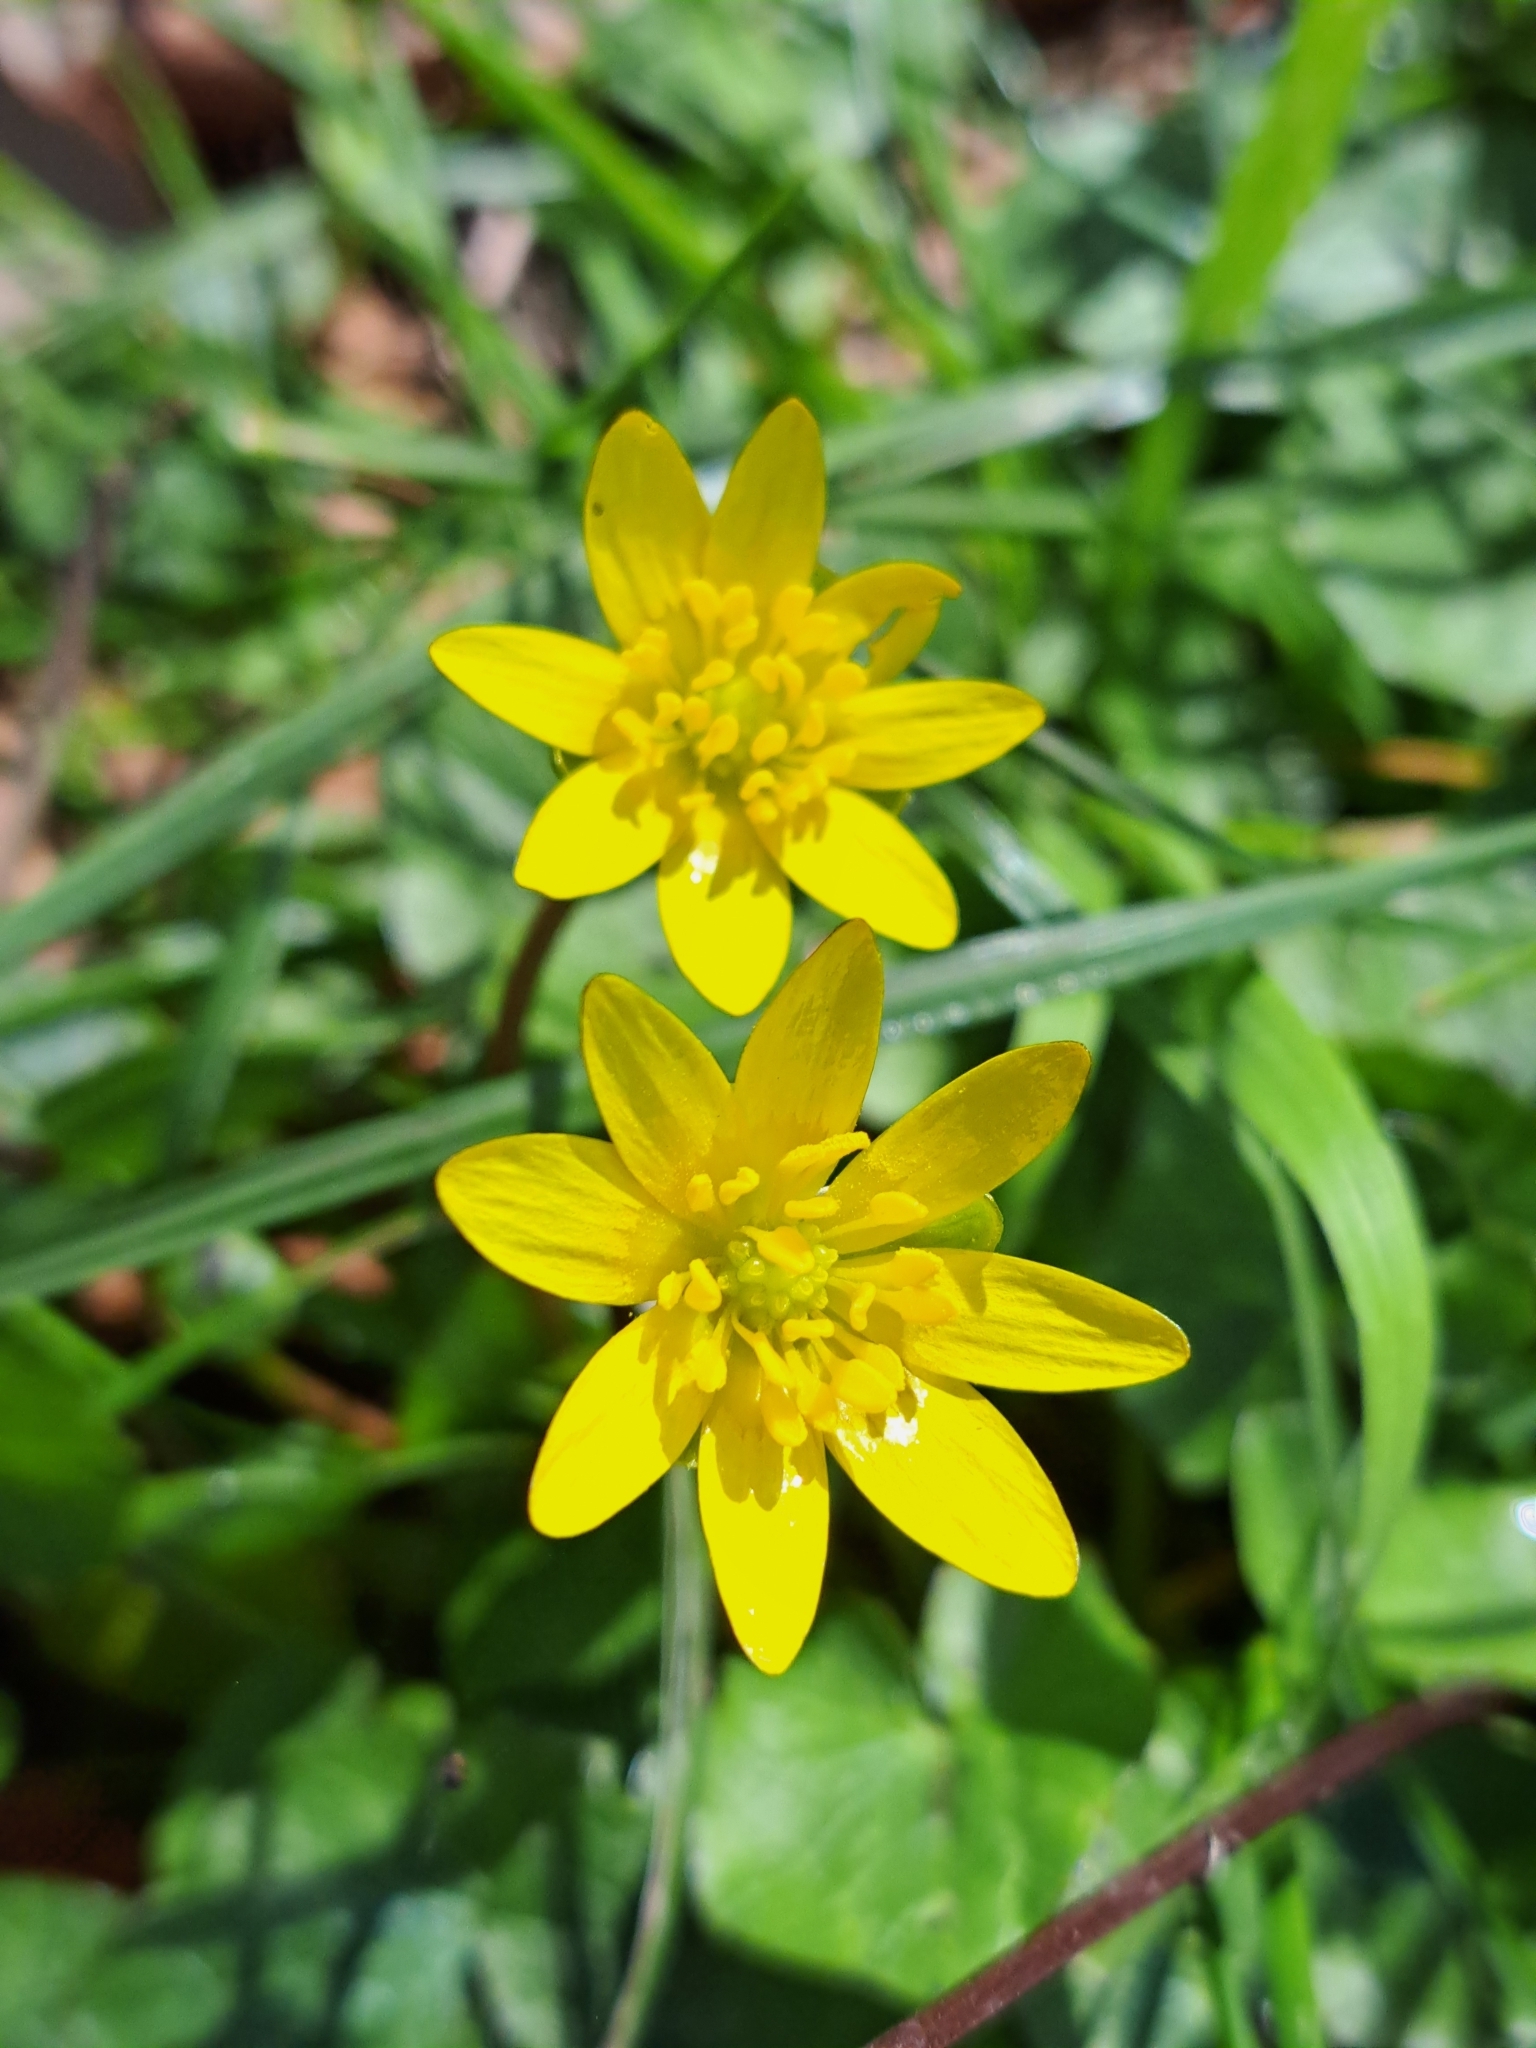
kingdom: Plantae
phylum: Tracheophyta
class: Magnoliopsida
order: Ranunculales
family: Ranunculaceae
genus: Ficaria
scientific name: Ficaria verna
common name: Lesser celandine
